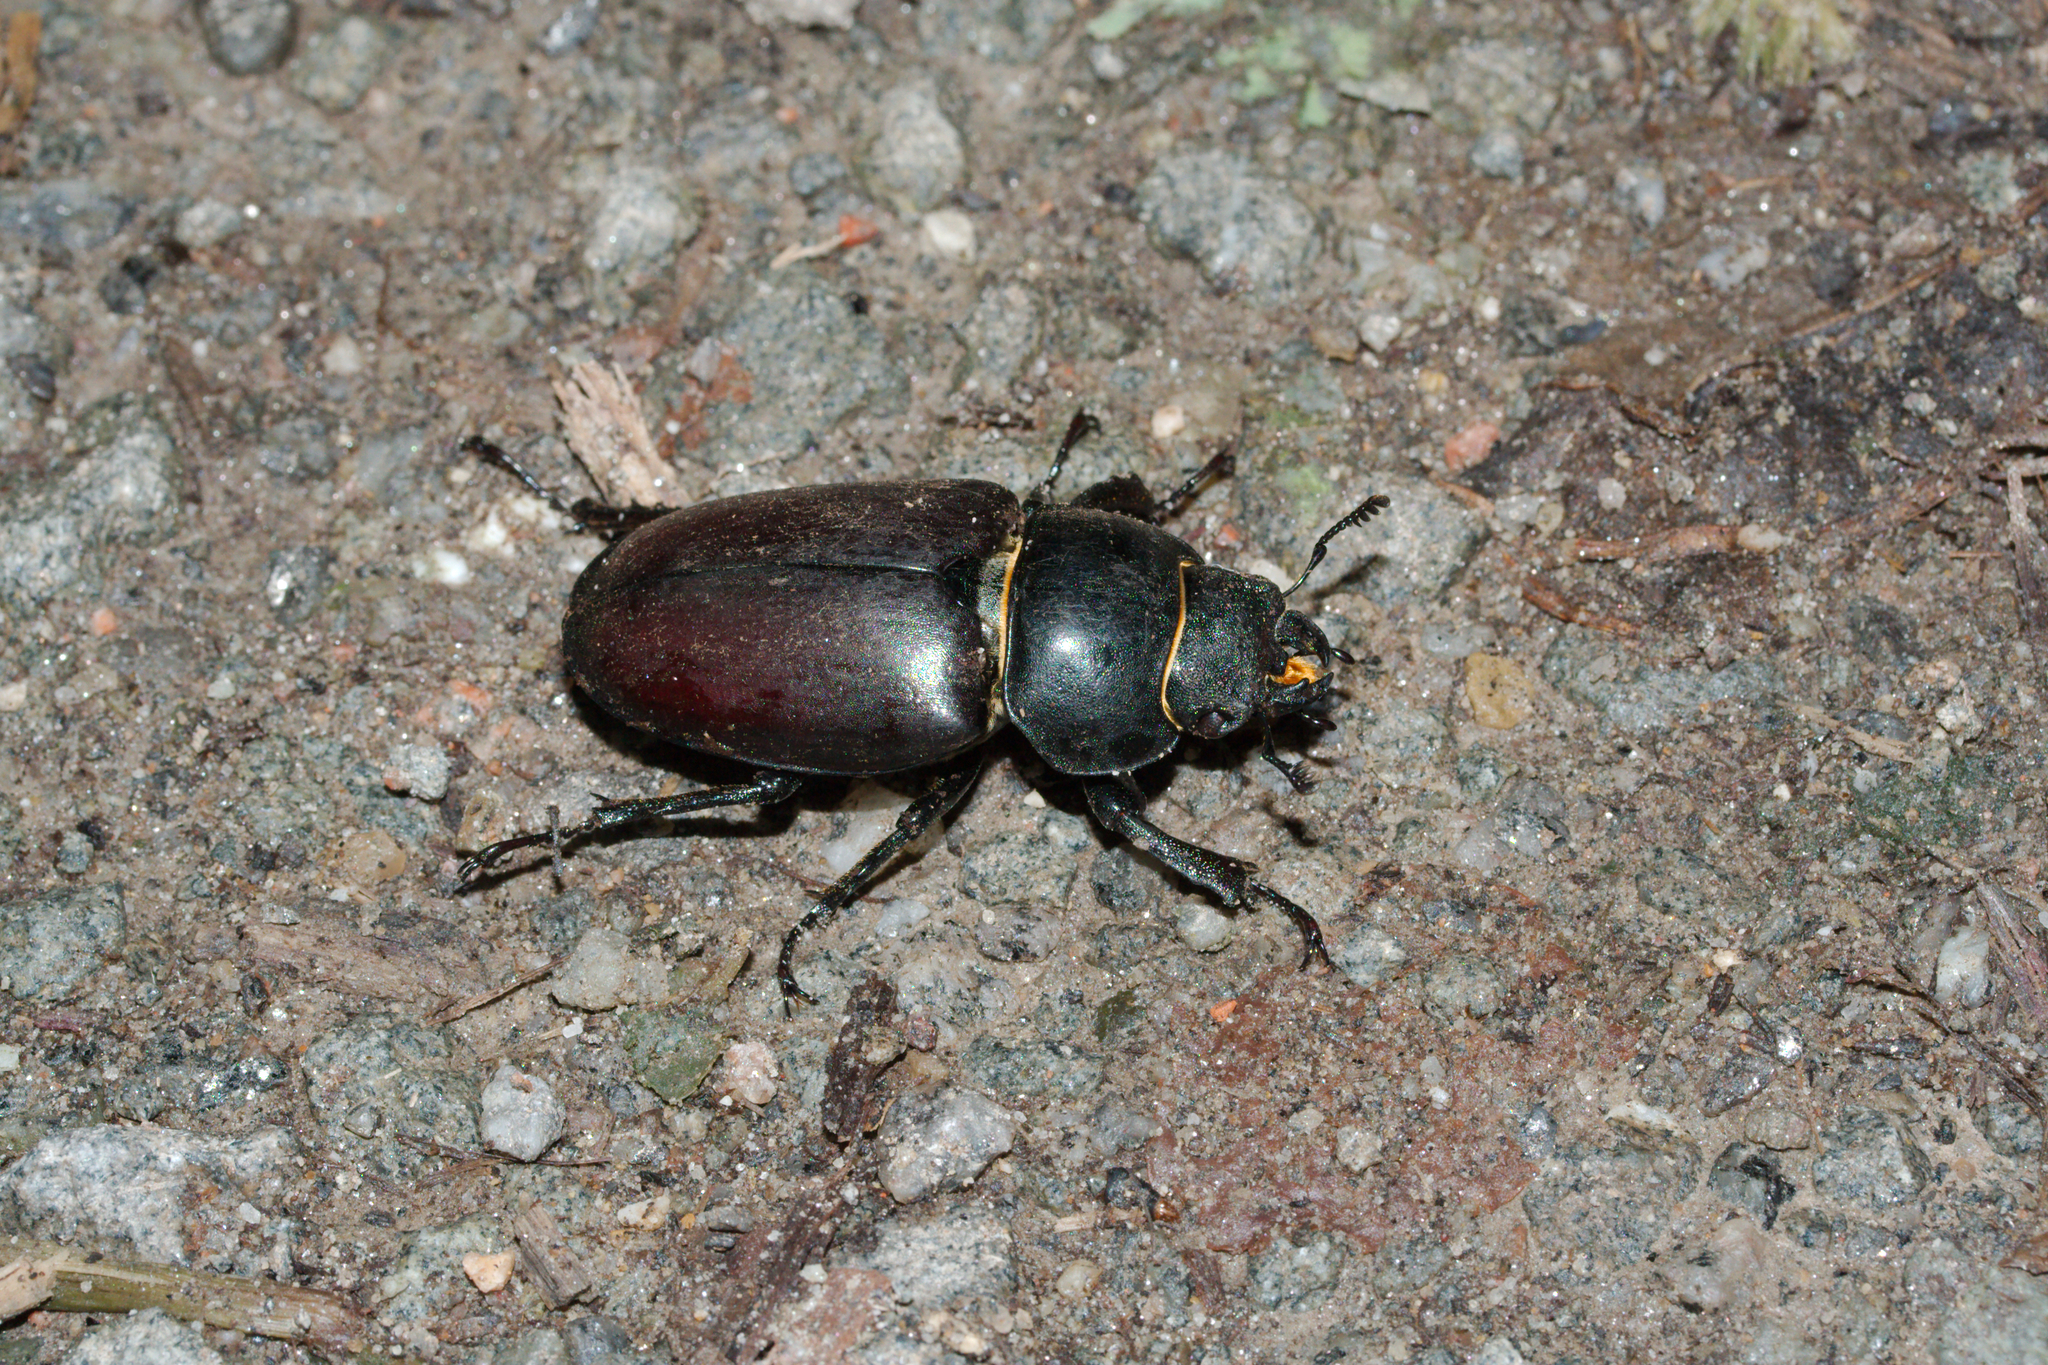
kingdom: Animalia
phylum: Arthropoda
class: Insecta
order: Coleoptera
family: Lucanidae
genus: Lucanus
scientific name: Lucanus cervus
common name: Stag beetle
